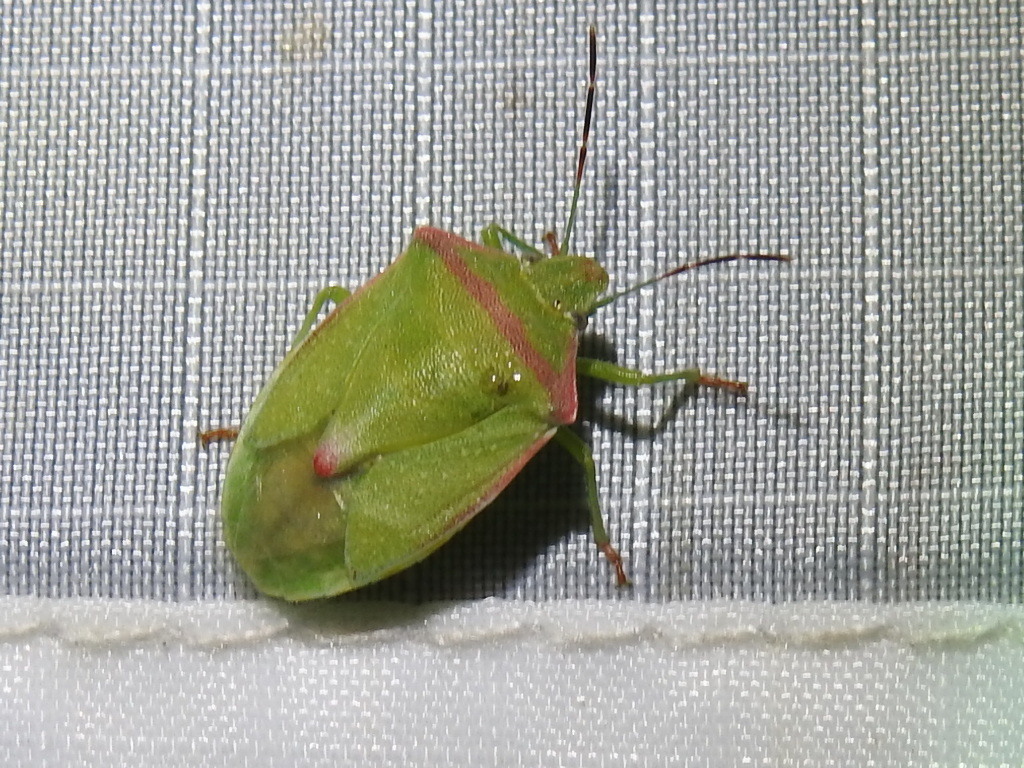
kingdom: Animalia
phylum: Arthropoda
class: Insecta
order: Hemiptera
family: Pentatomidae
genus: Thyanta
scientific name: Thyanta custator
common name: Stink bug
